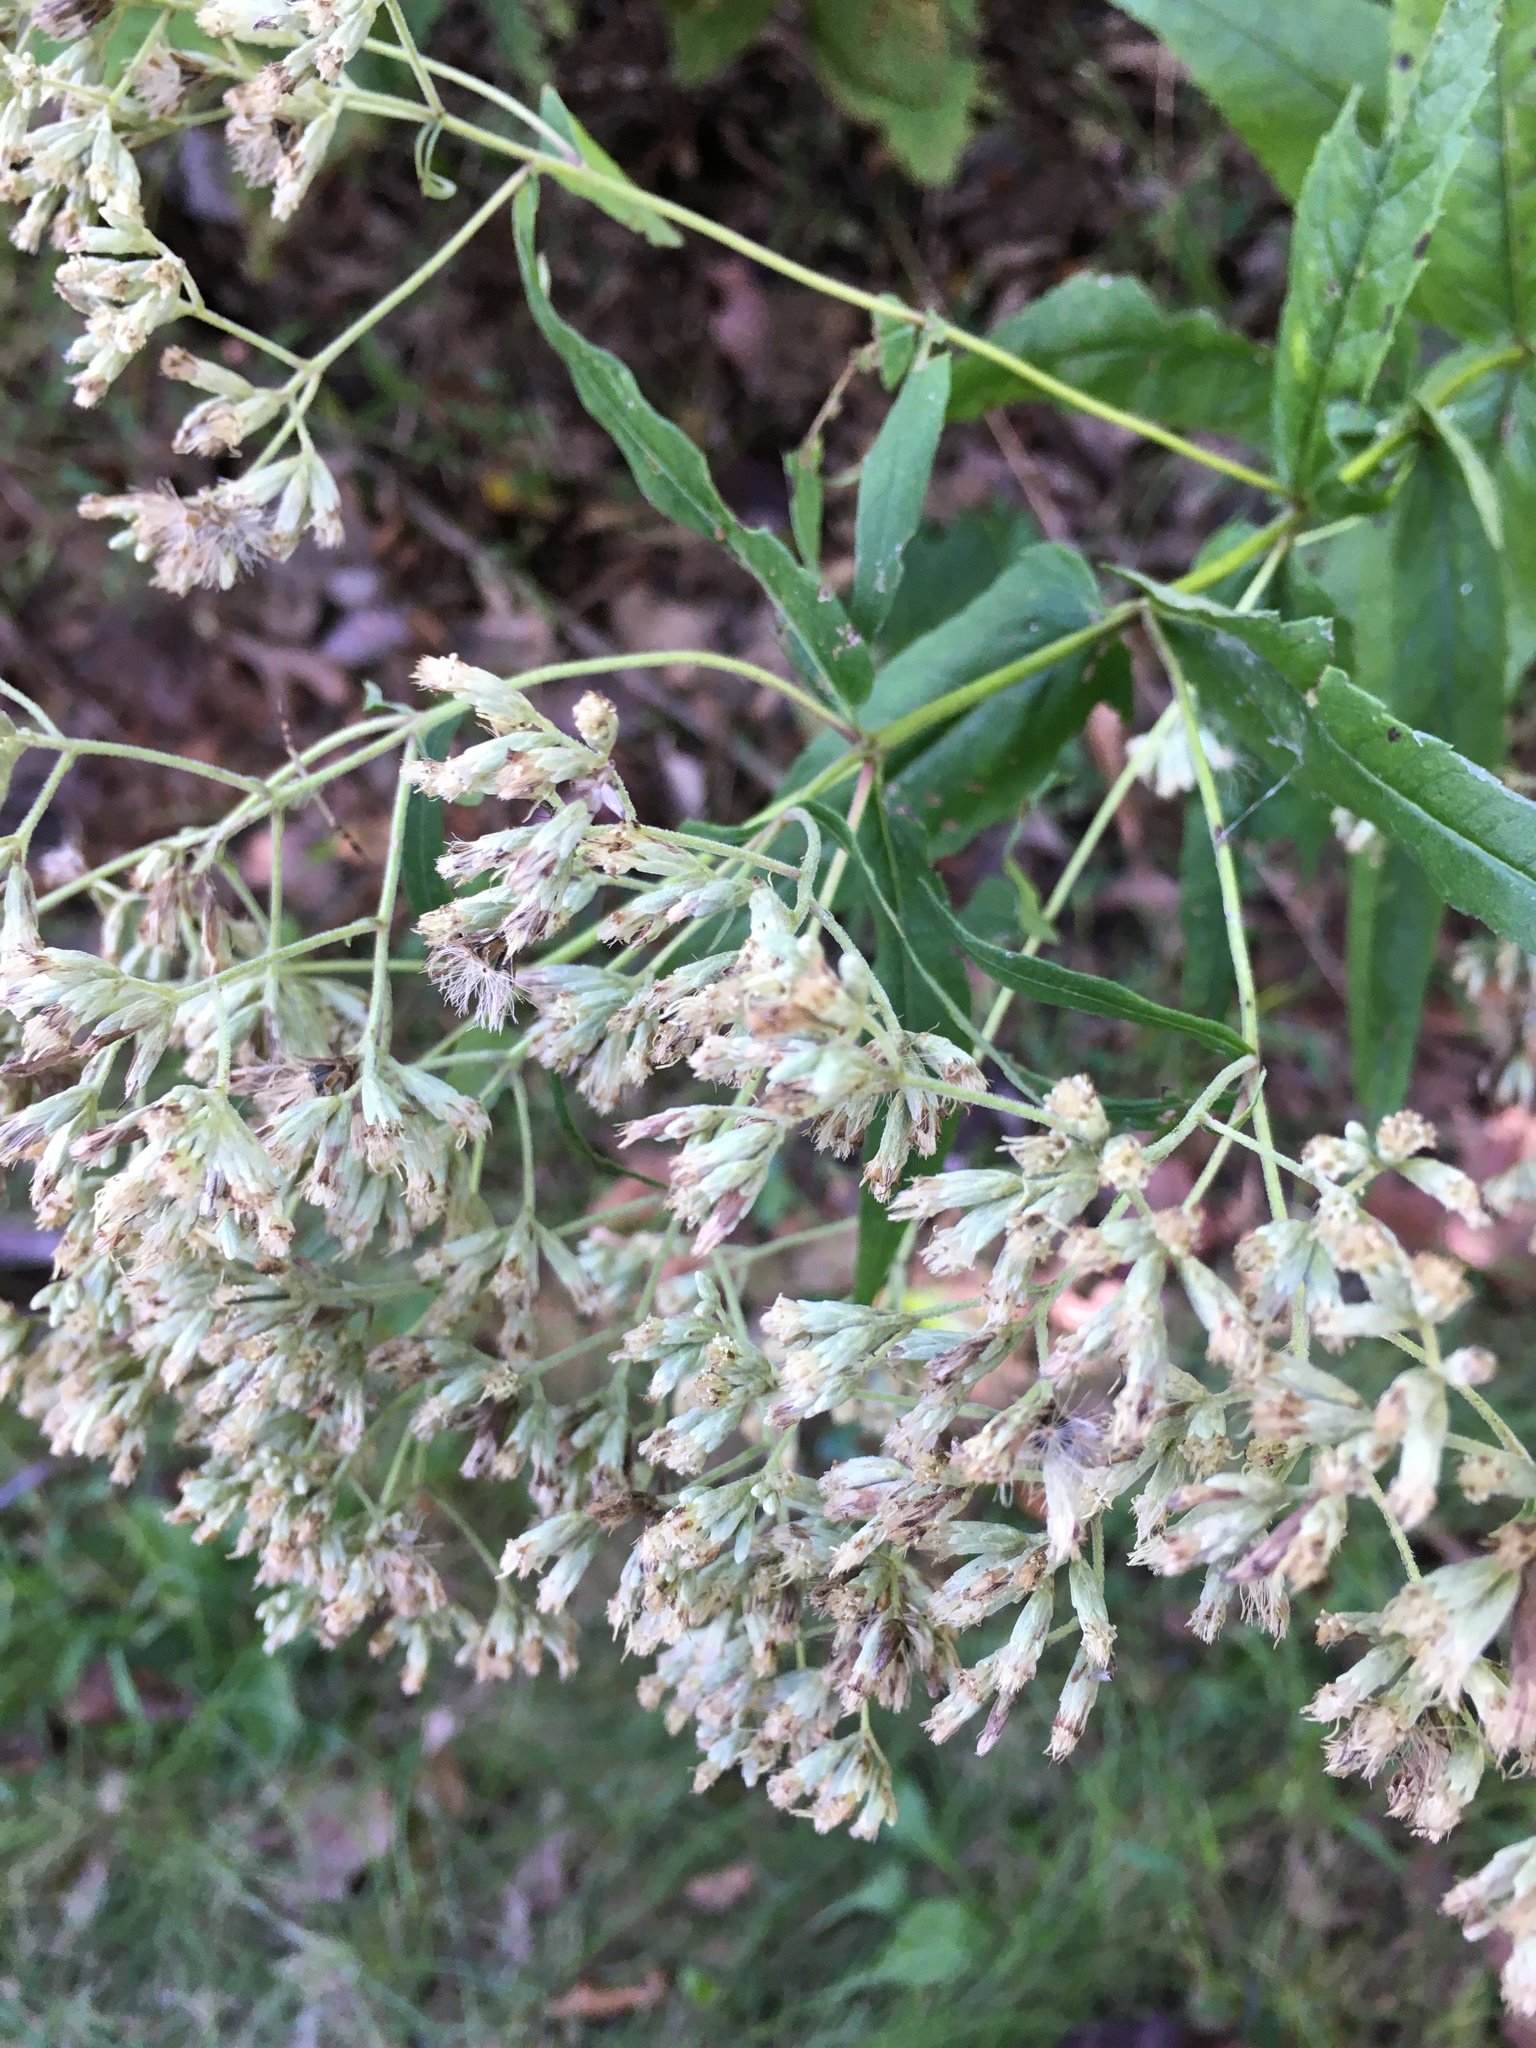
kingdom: Plantae
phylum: Tracheophyta
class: Magnoliopsida
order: Asterales
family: Asteraceae
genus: Eupatorium
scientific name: Eupatorium sessilifolium
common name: Upland boneset
